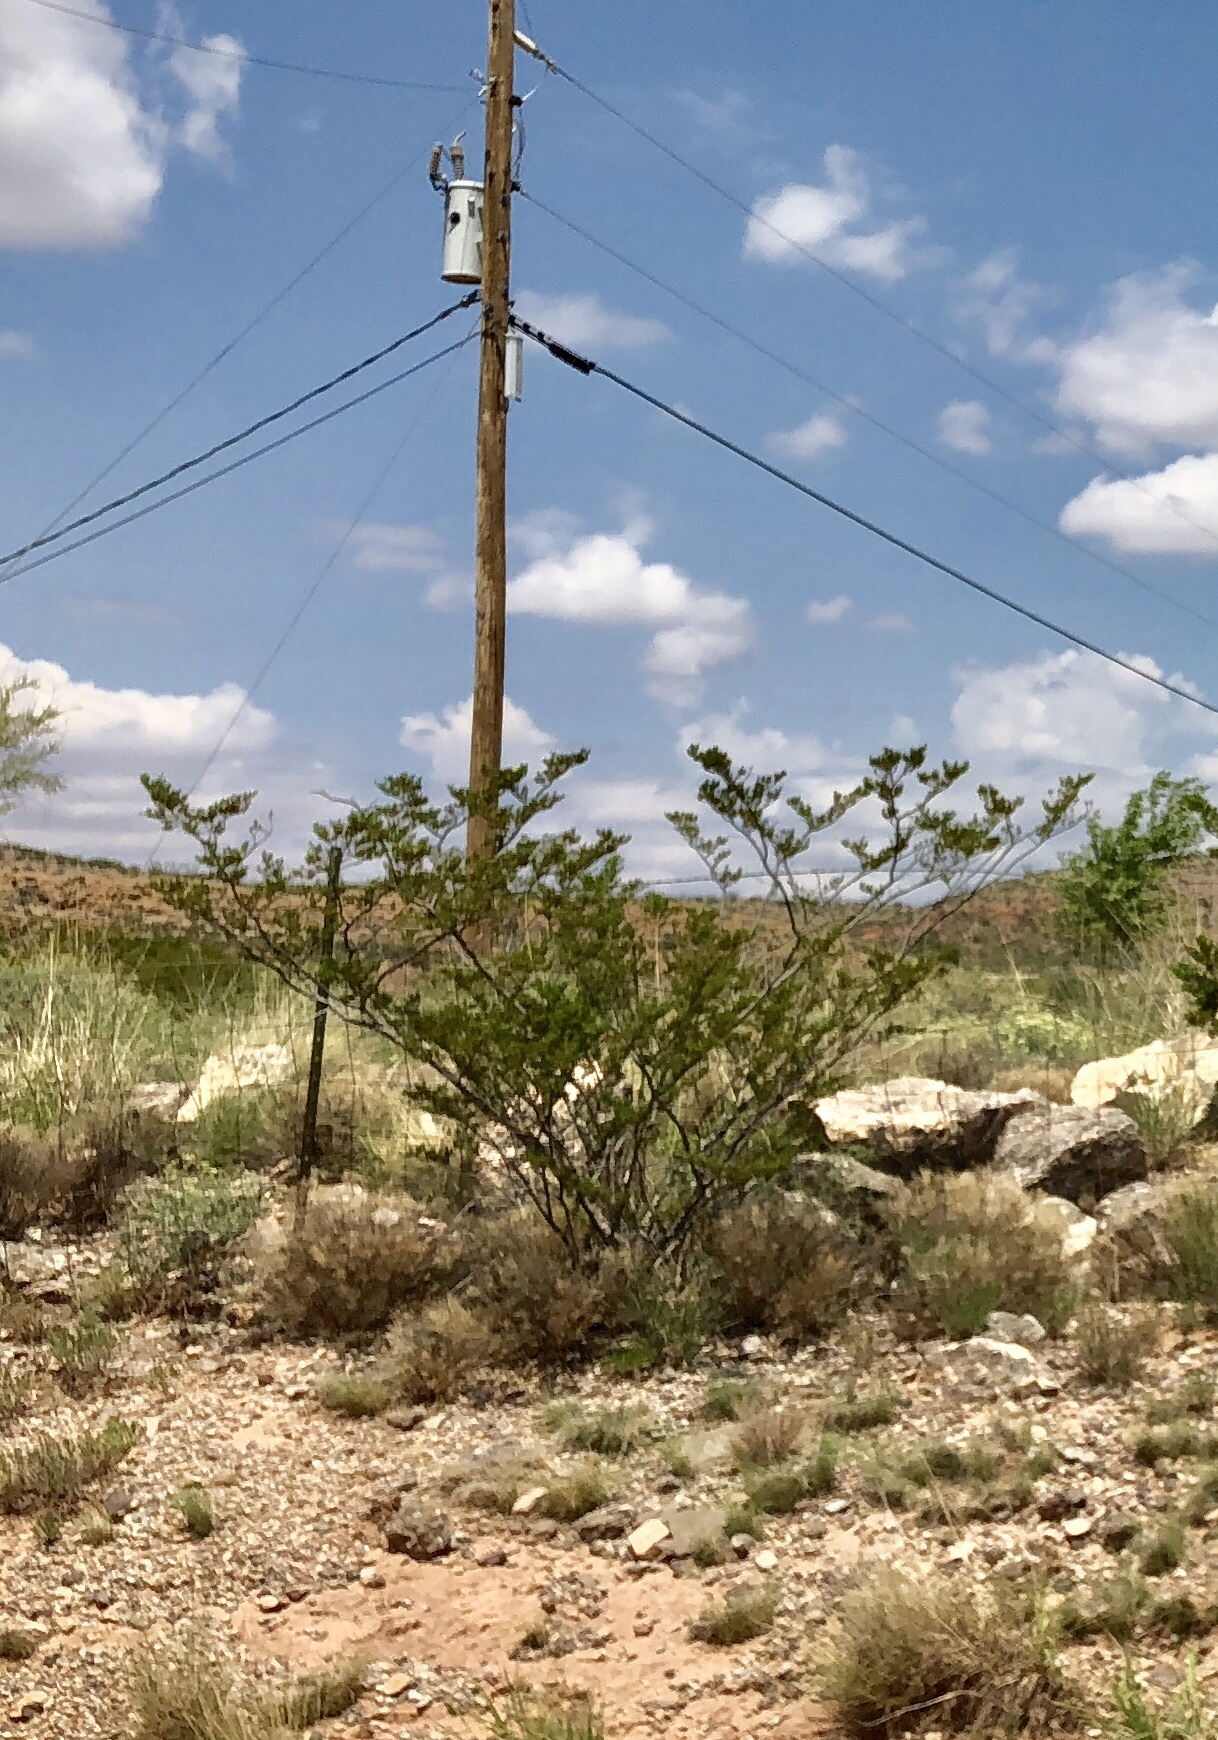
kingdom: Plantae
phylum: Tracheophyta
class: Magnoliopsida
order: Zygophyllales
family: Zygophyllaceae
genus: Larrea
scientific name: Larrea tridentata
